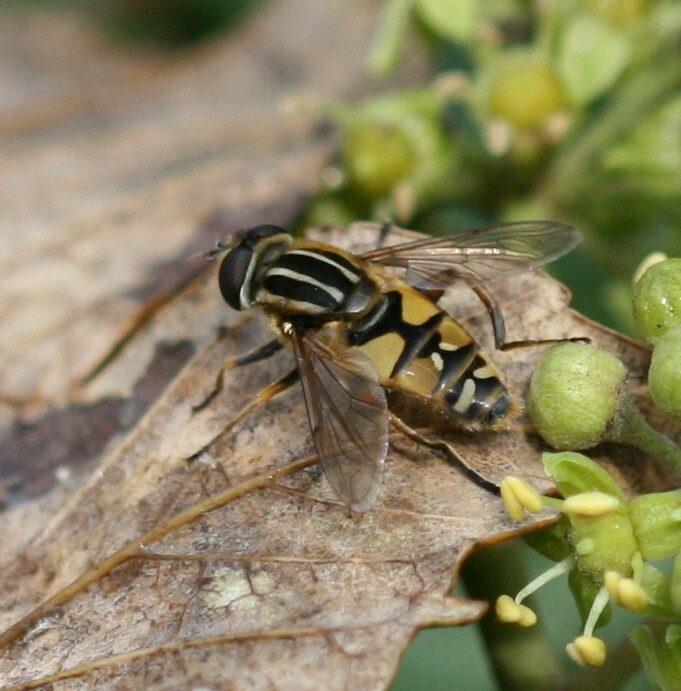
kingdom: Animalia
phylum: Arthropoda
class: Insecta
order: Diptera
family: Syrphidae
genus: Helophilus
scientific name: Helophilus pendulus
